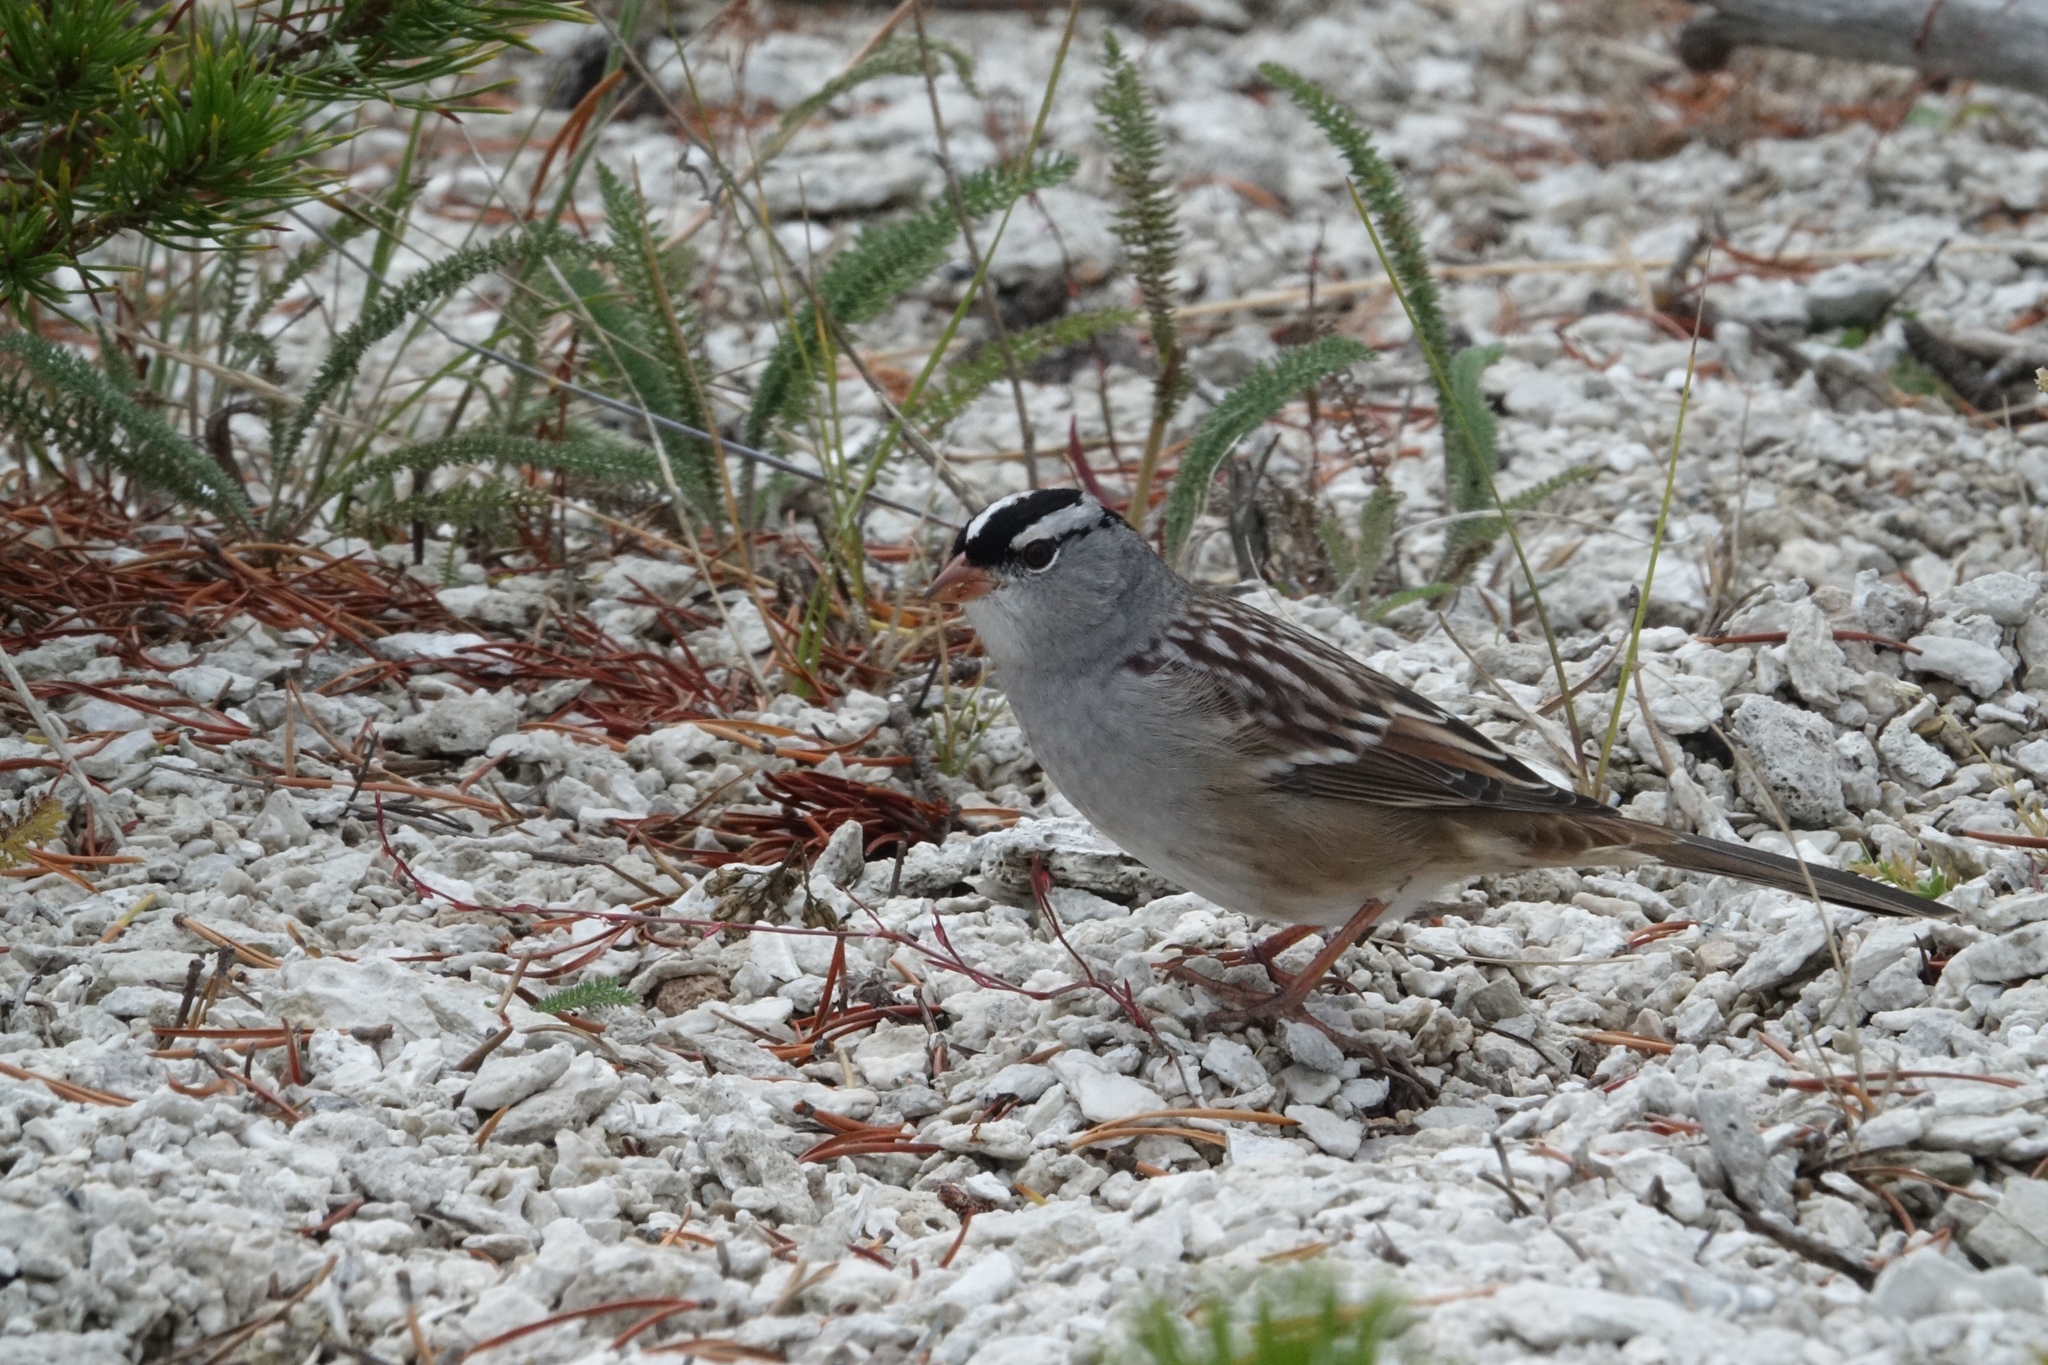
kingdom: Animalia
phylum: Chordata
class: Aves
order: Passeriformes
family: Passerellidae
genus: Zonotrichia
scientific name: Zonotrichia leucophrys
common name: White-crowned sparrow
